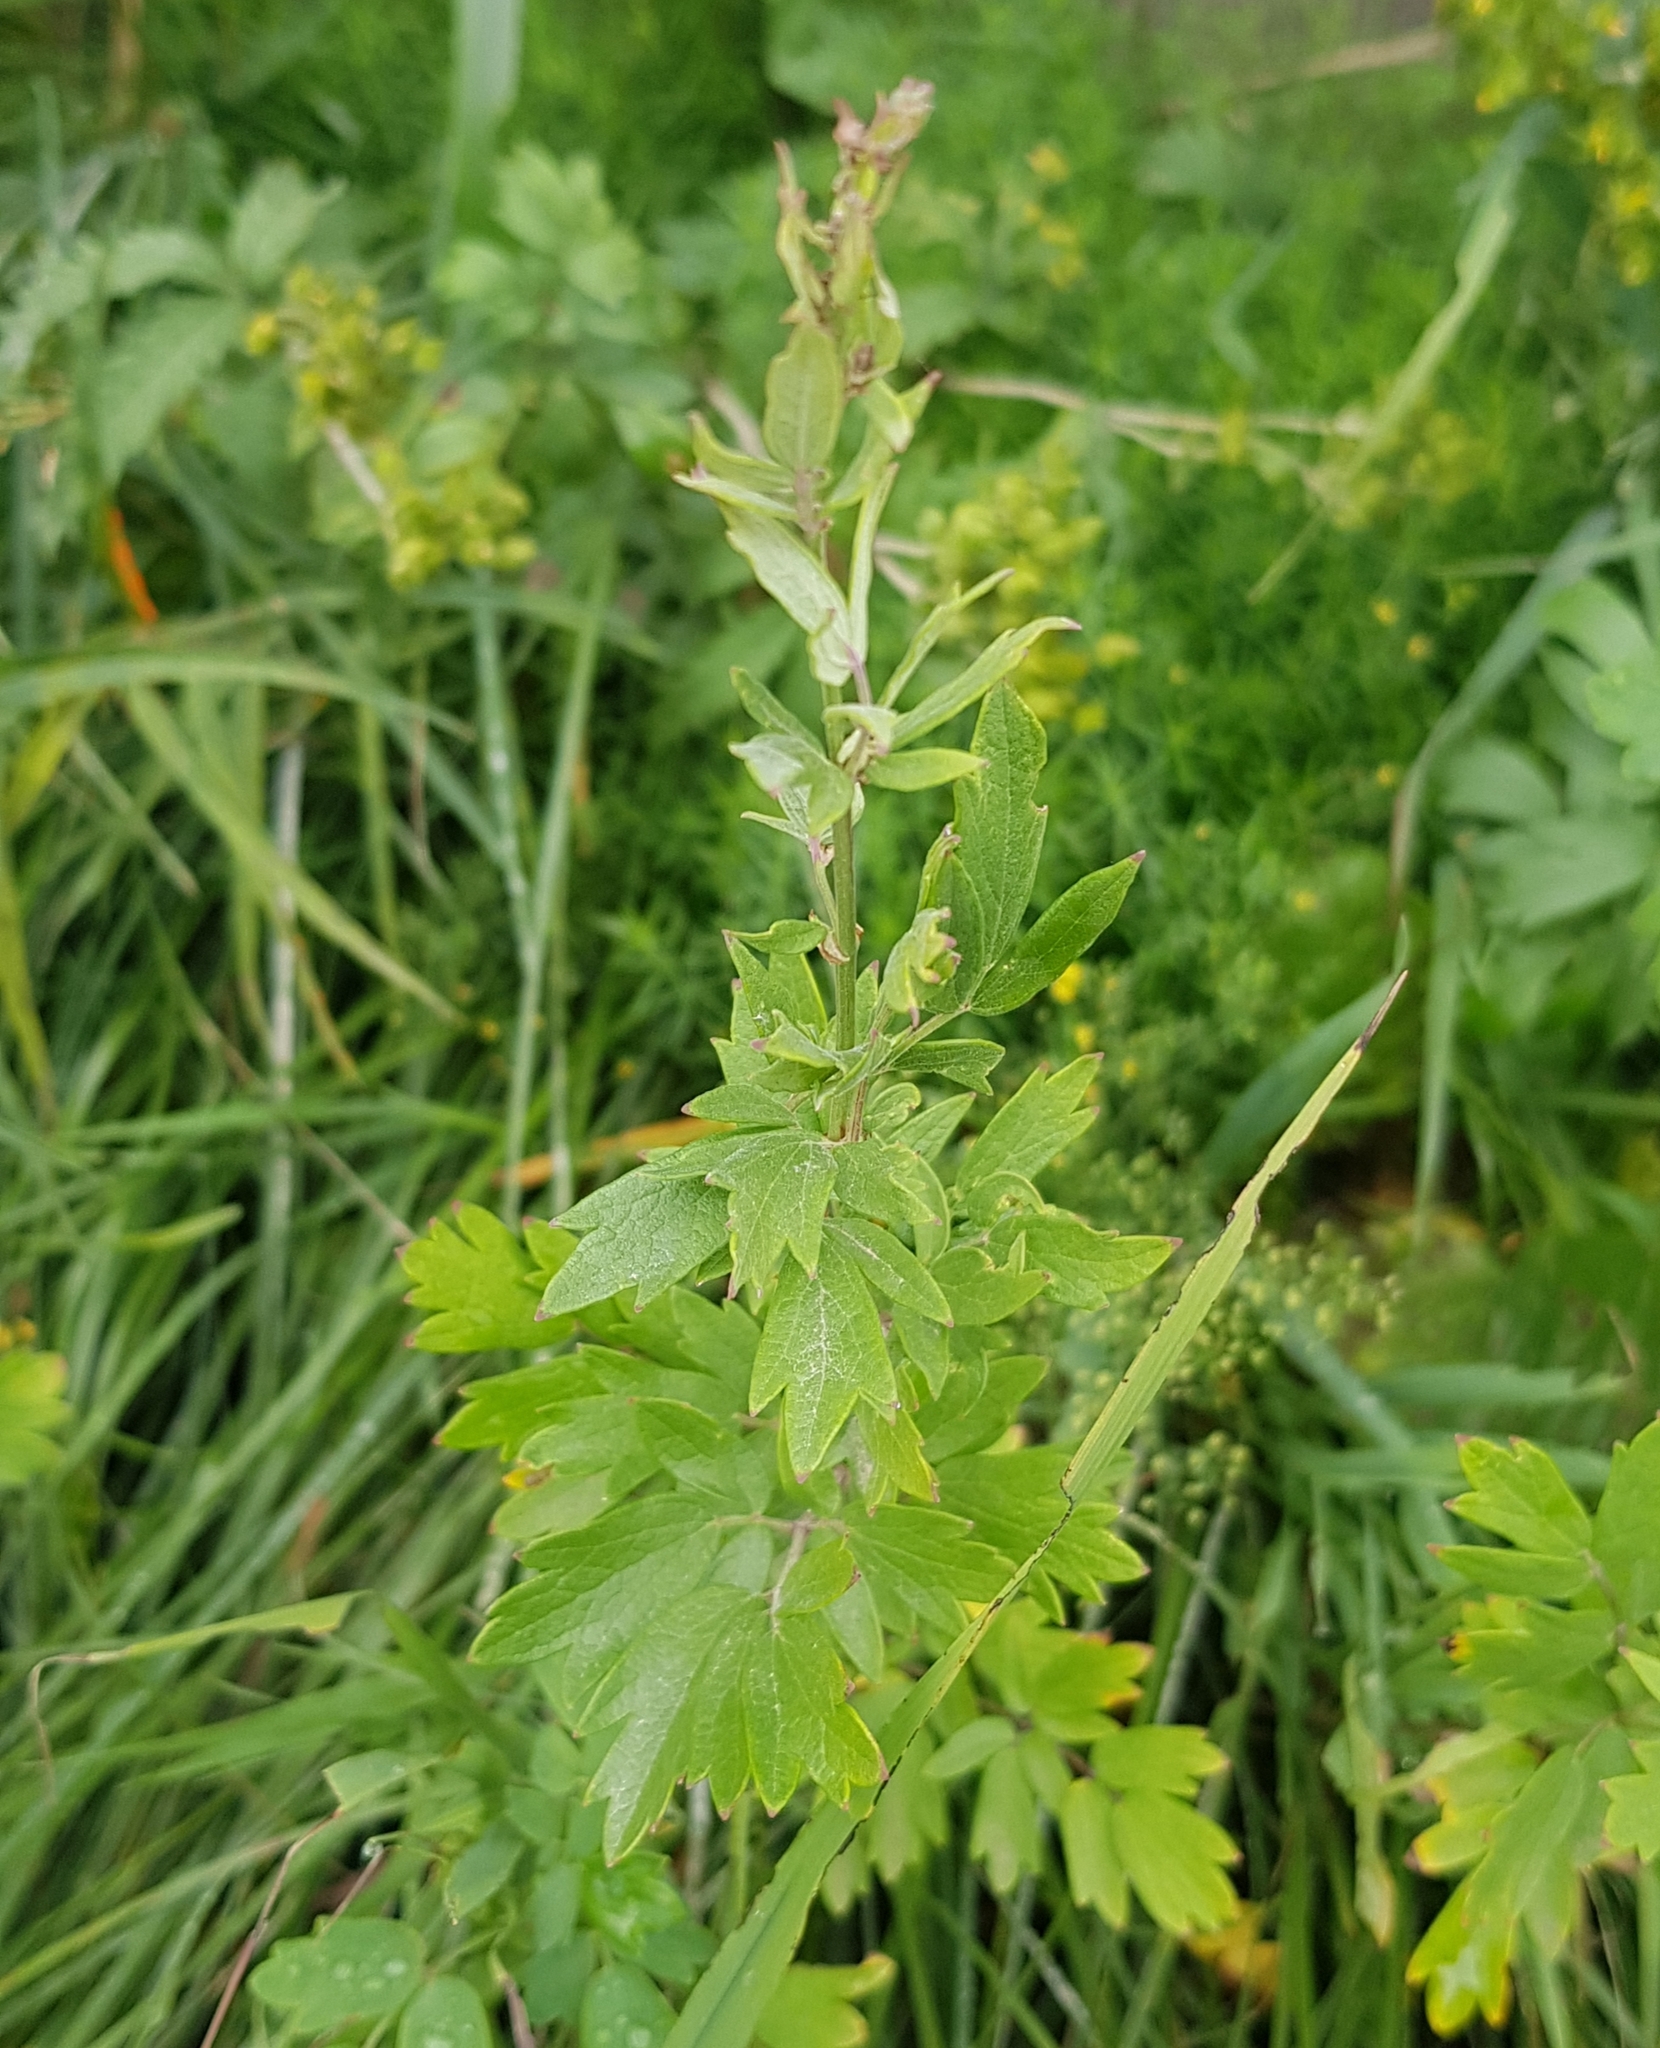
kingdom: Plantae
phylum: Tracheophyta
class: Magnoliopsida
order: Ranunculales
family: Ranunculaceae
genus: Thalictrum
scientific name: Thalictrum simplex
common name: Small meadow-rue
